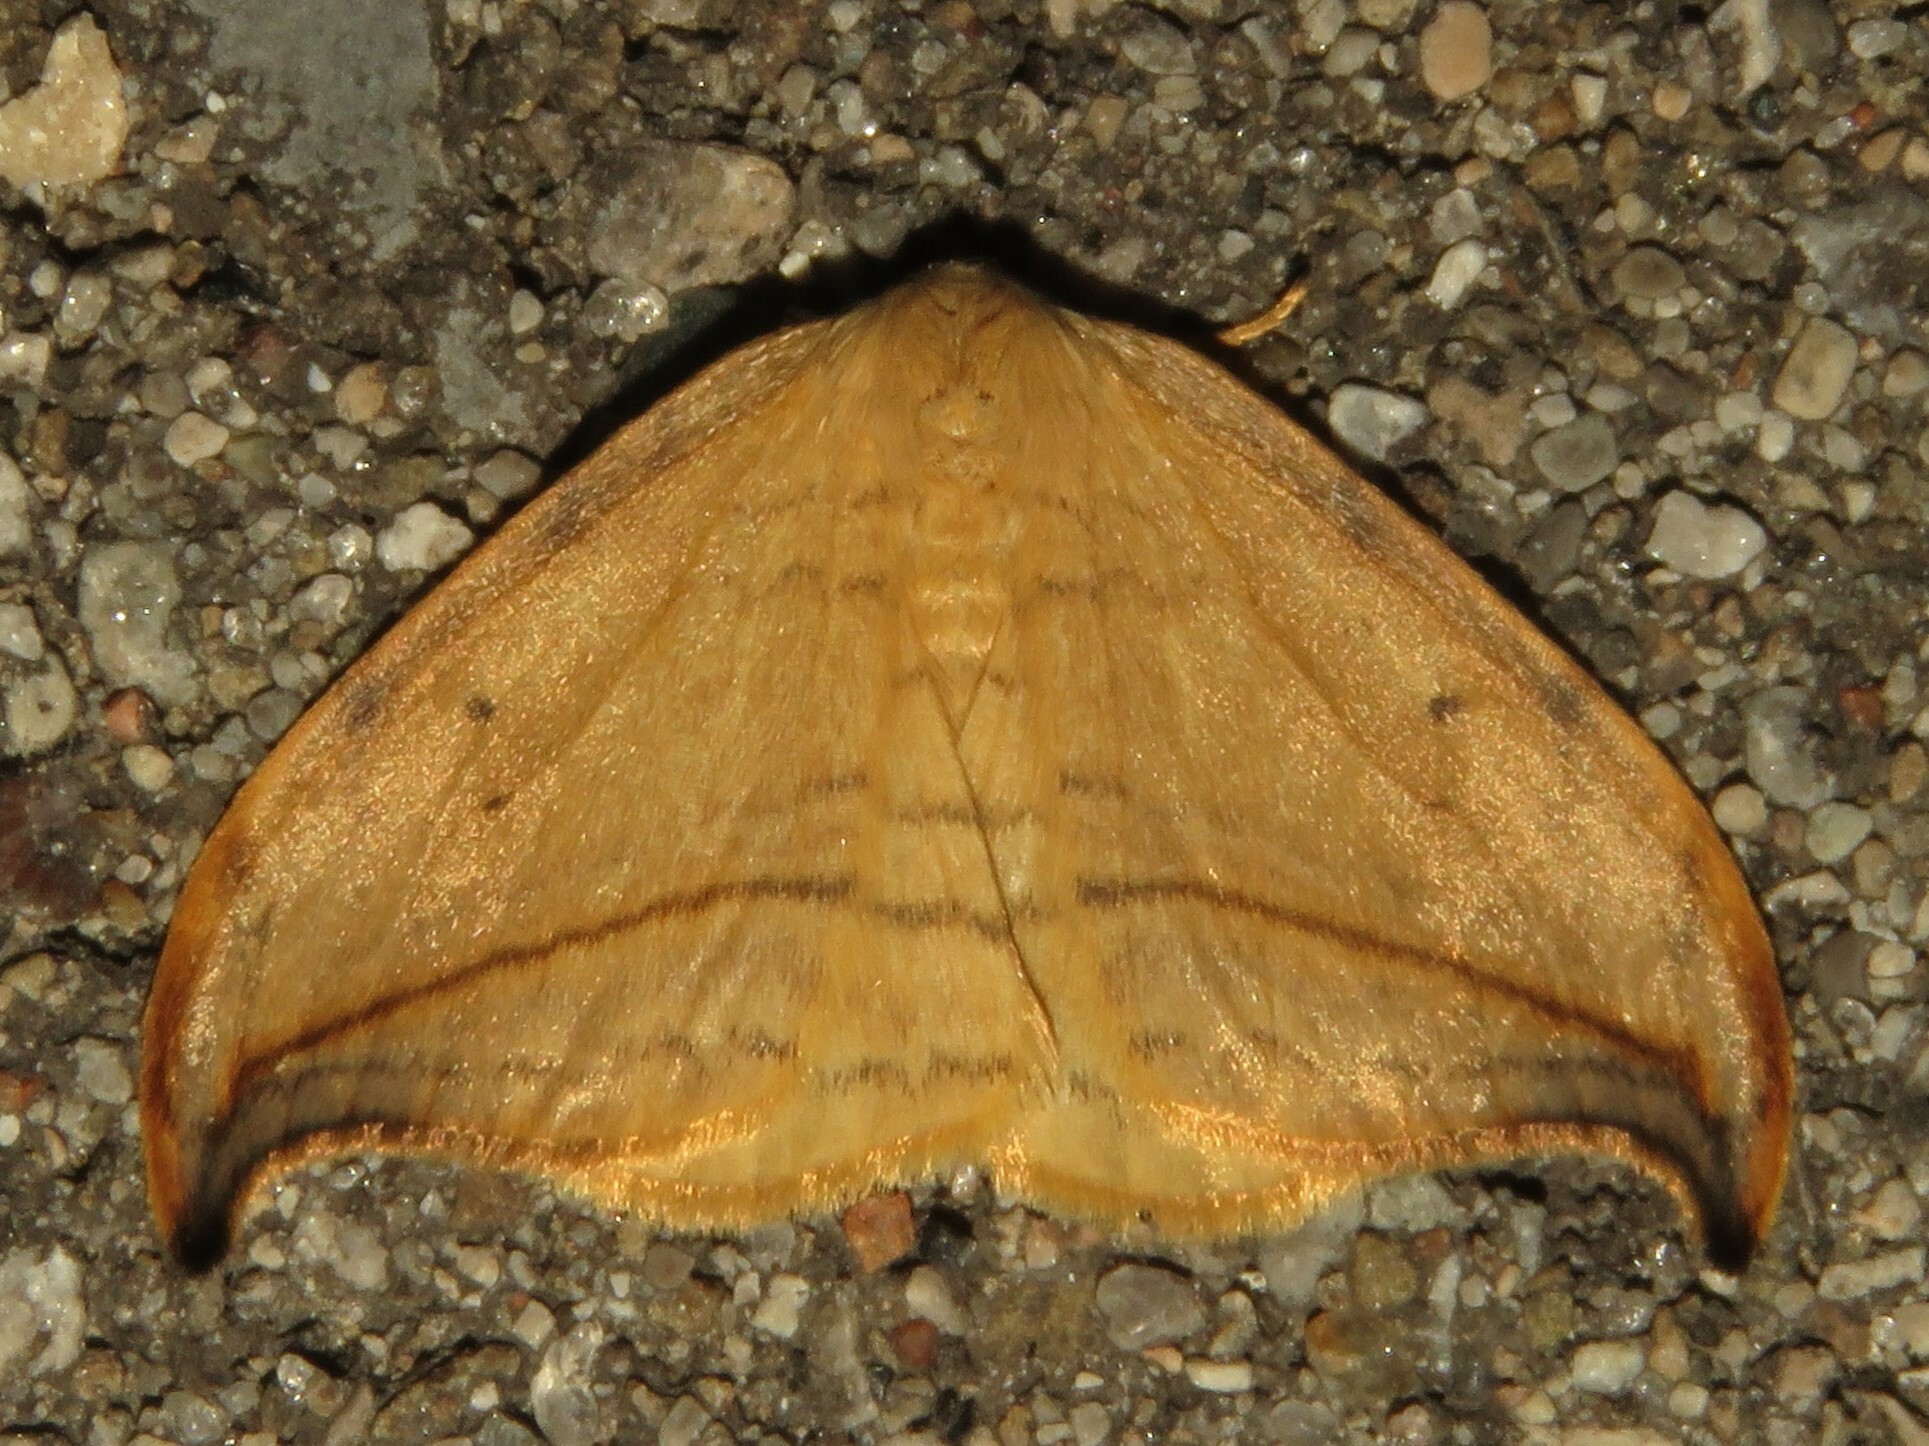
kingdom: Animalia
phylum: Arthropoda
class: Insecta
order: Lepidoptera
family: Drepanidae
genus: Drepana
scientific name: Drepana arcuata
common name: Arched hooktip moth
